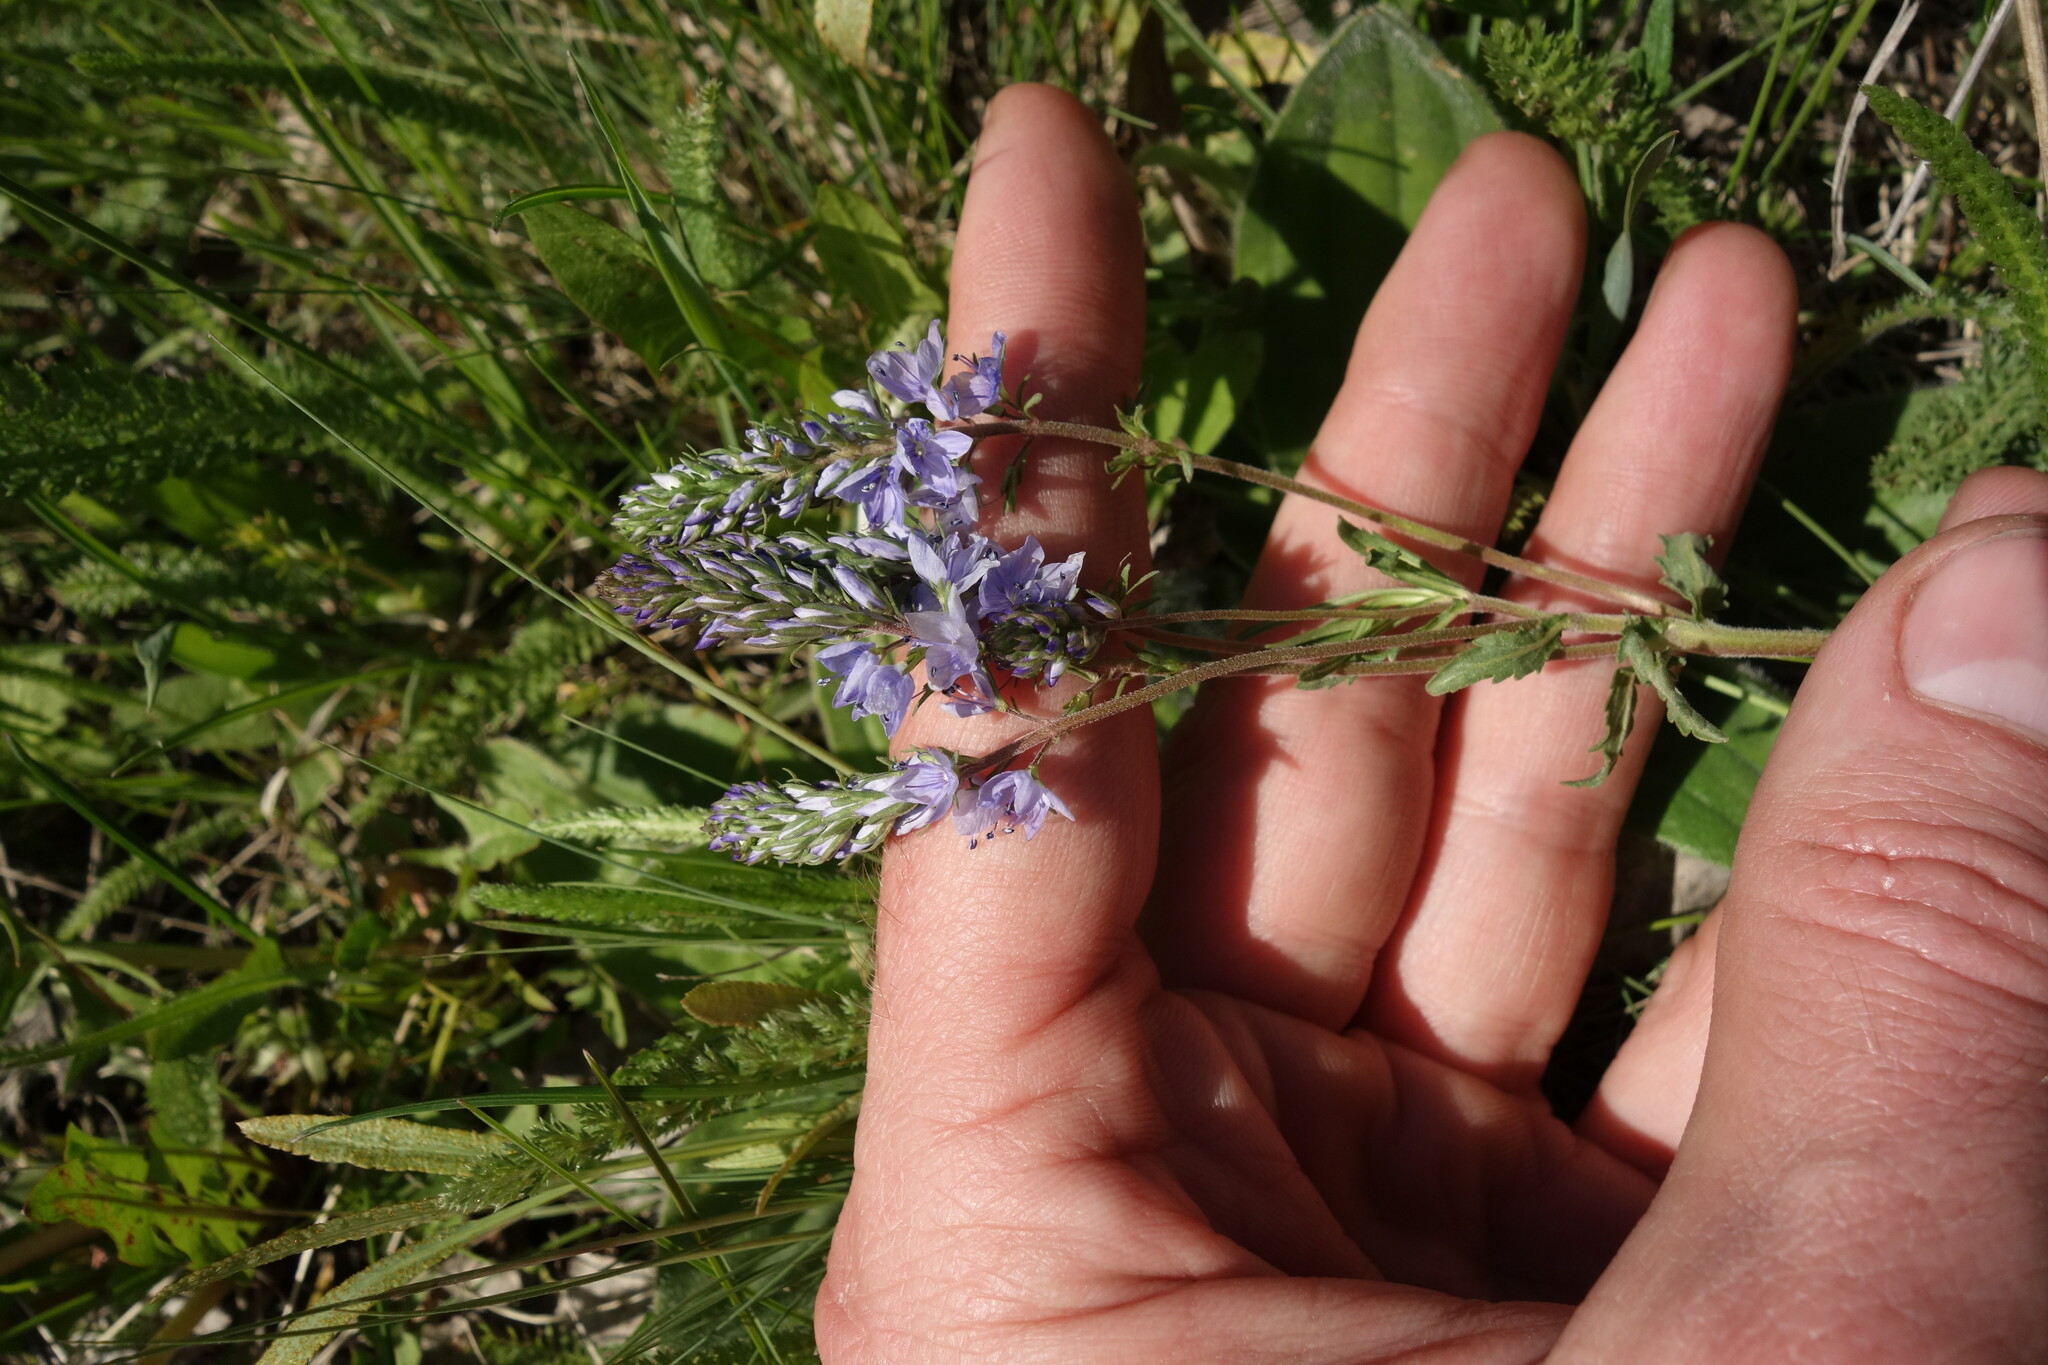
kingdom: Plantae
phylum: Tracheophyta
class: Magnoliopsida
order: Lamiales
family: Plantaginaceae
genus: Veronica
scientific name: Veronica prostrata
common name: Prostrate speedwell
